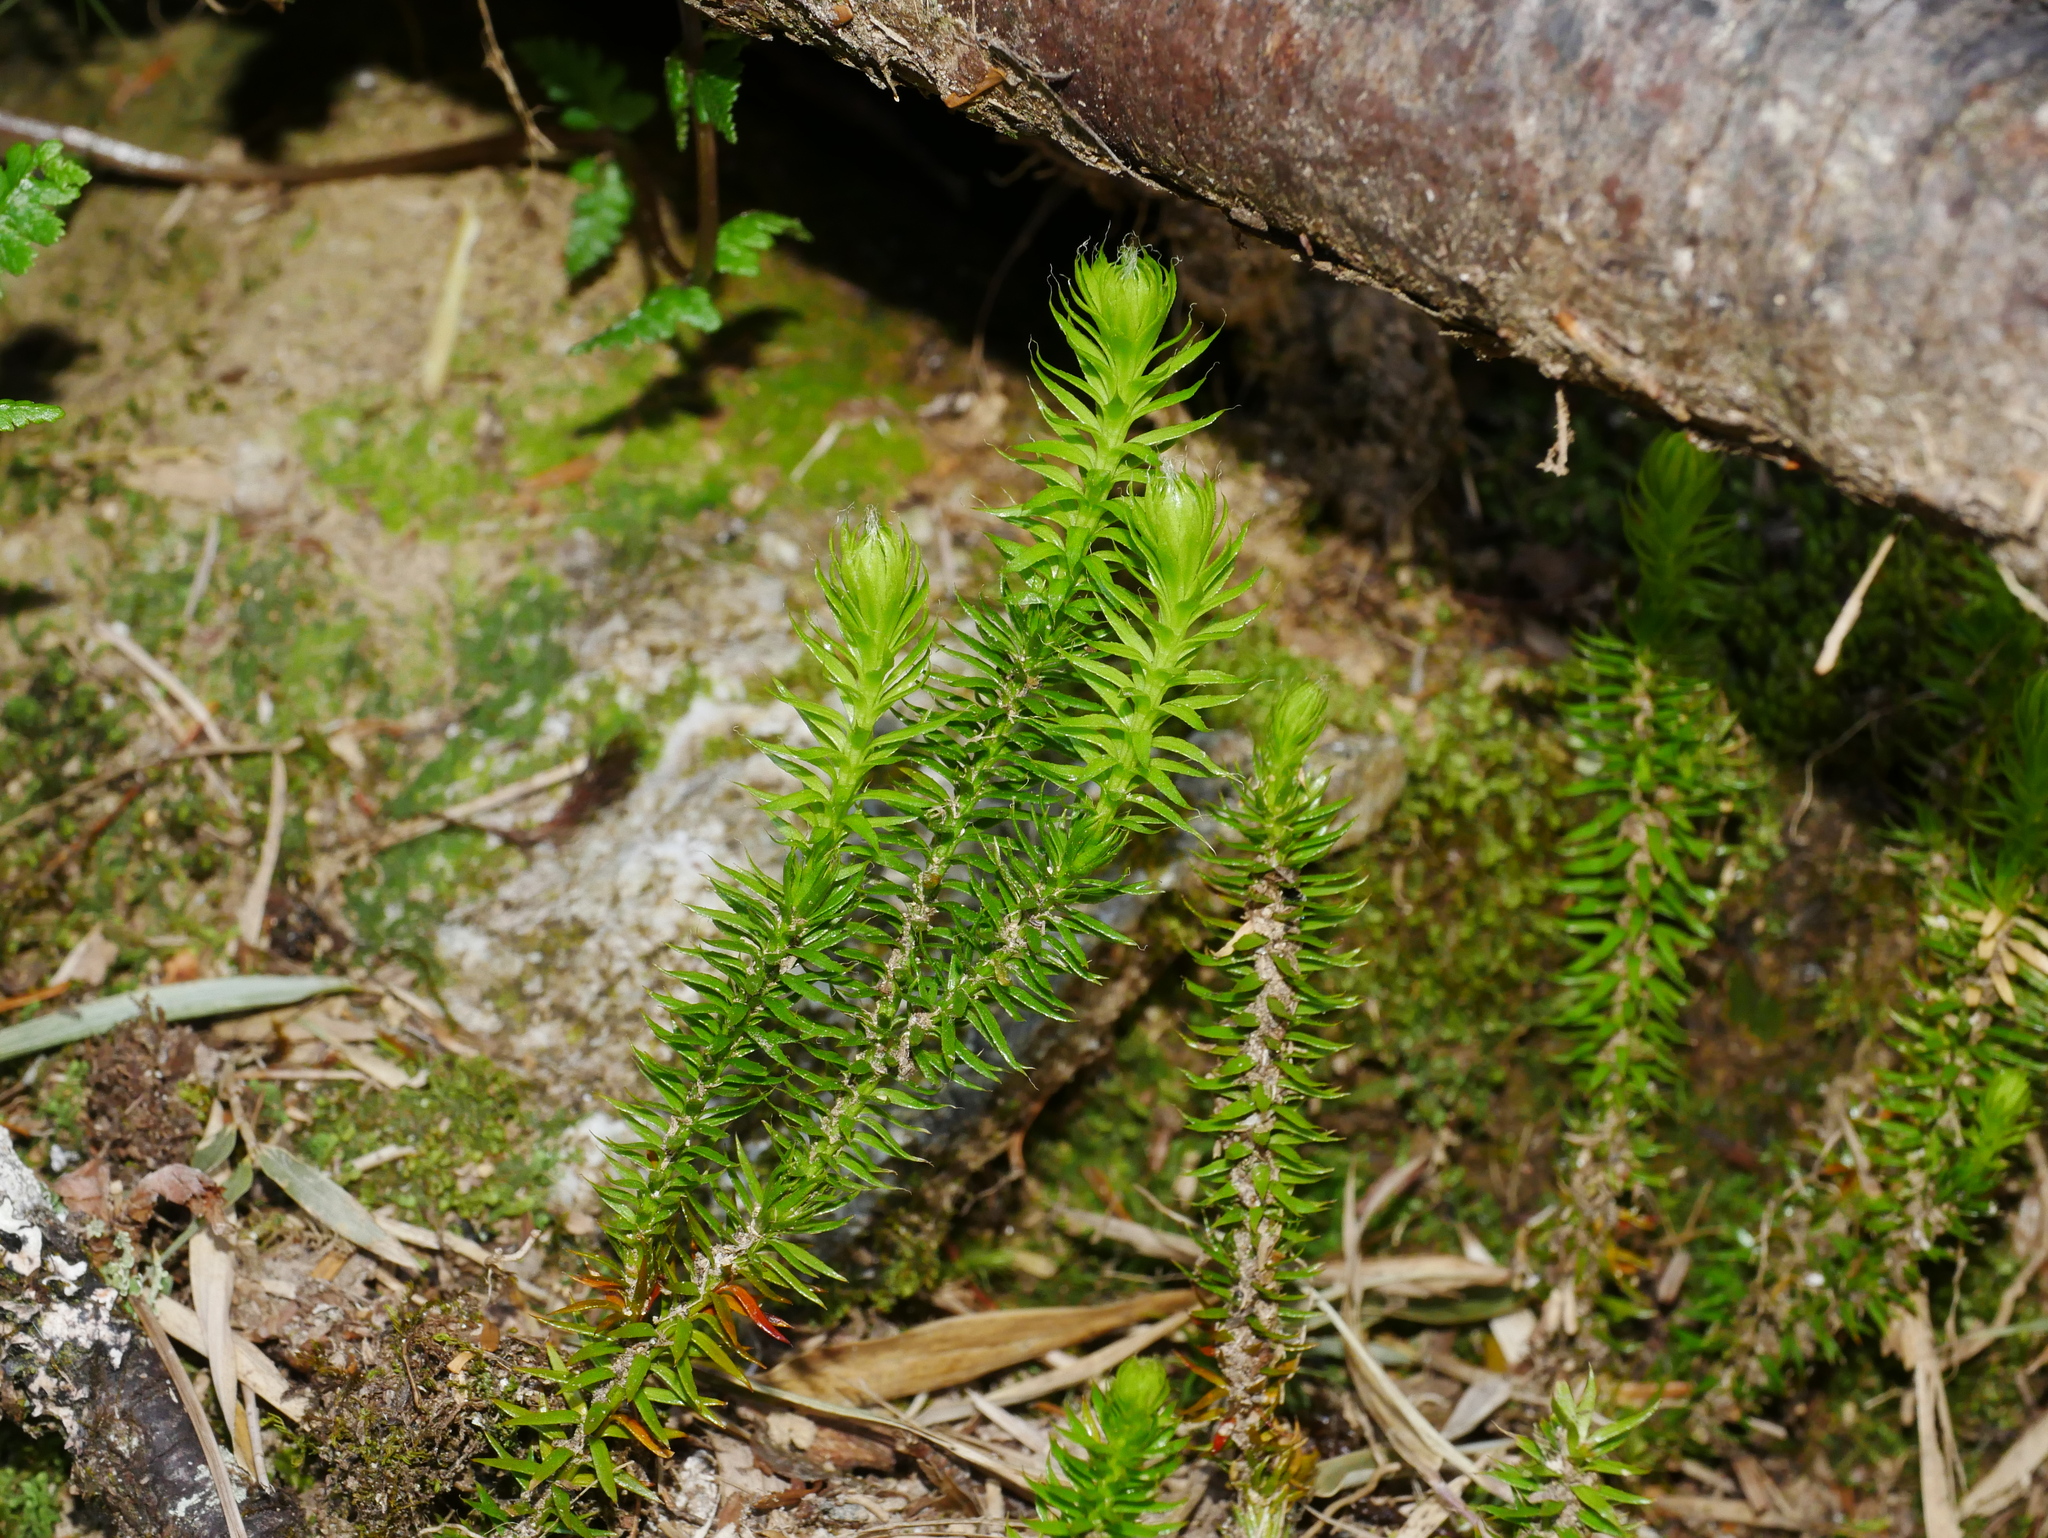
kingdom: Plantae
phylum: Tracheophyta
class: Lycopodiopsida
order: Lycopodiales
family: Lycopodiaceae
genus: Spinulum
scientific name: Spinulum annotinum
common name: Interrupted club-moss
